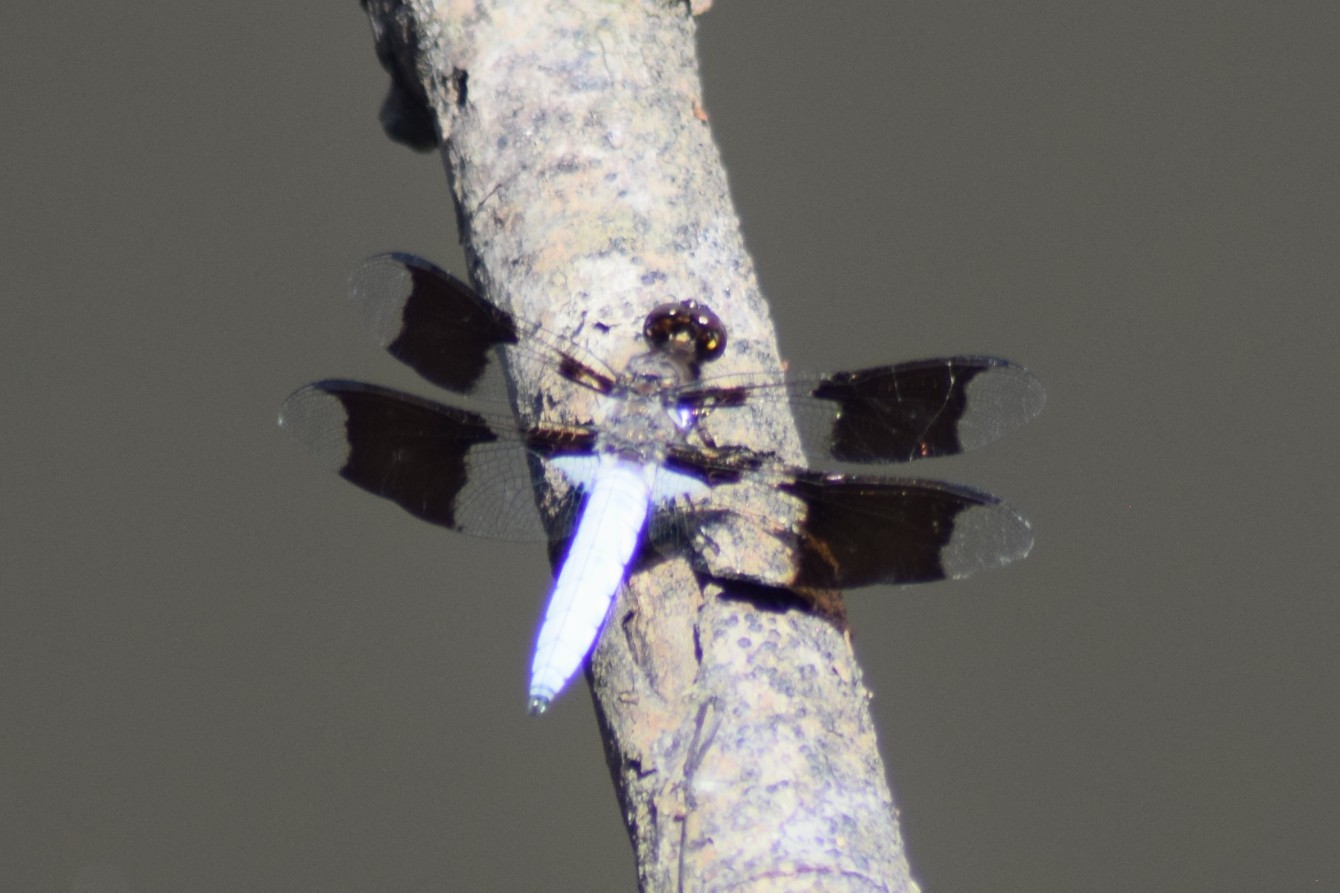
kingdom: Animalia
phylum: Arthropoda
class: Insecta
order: Odonata
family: Libellulidae
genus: Plathemis
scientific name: Plathemis lydia
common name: Common whitetail
